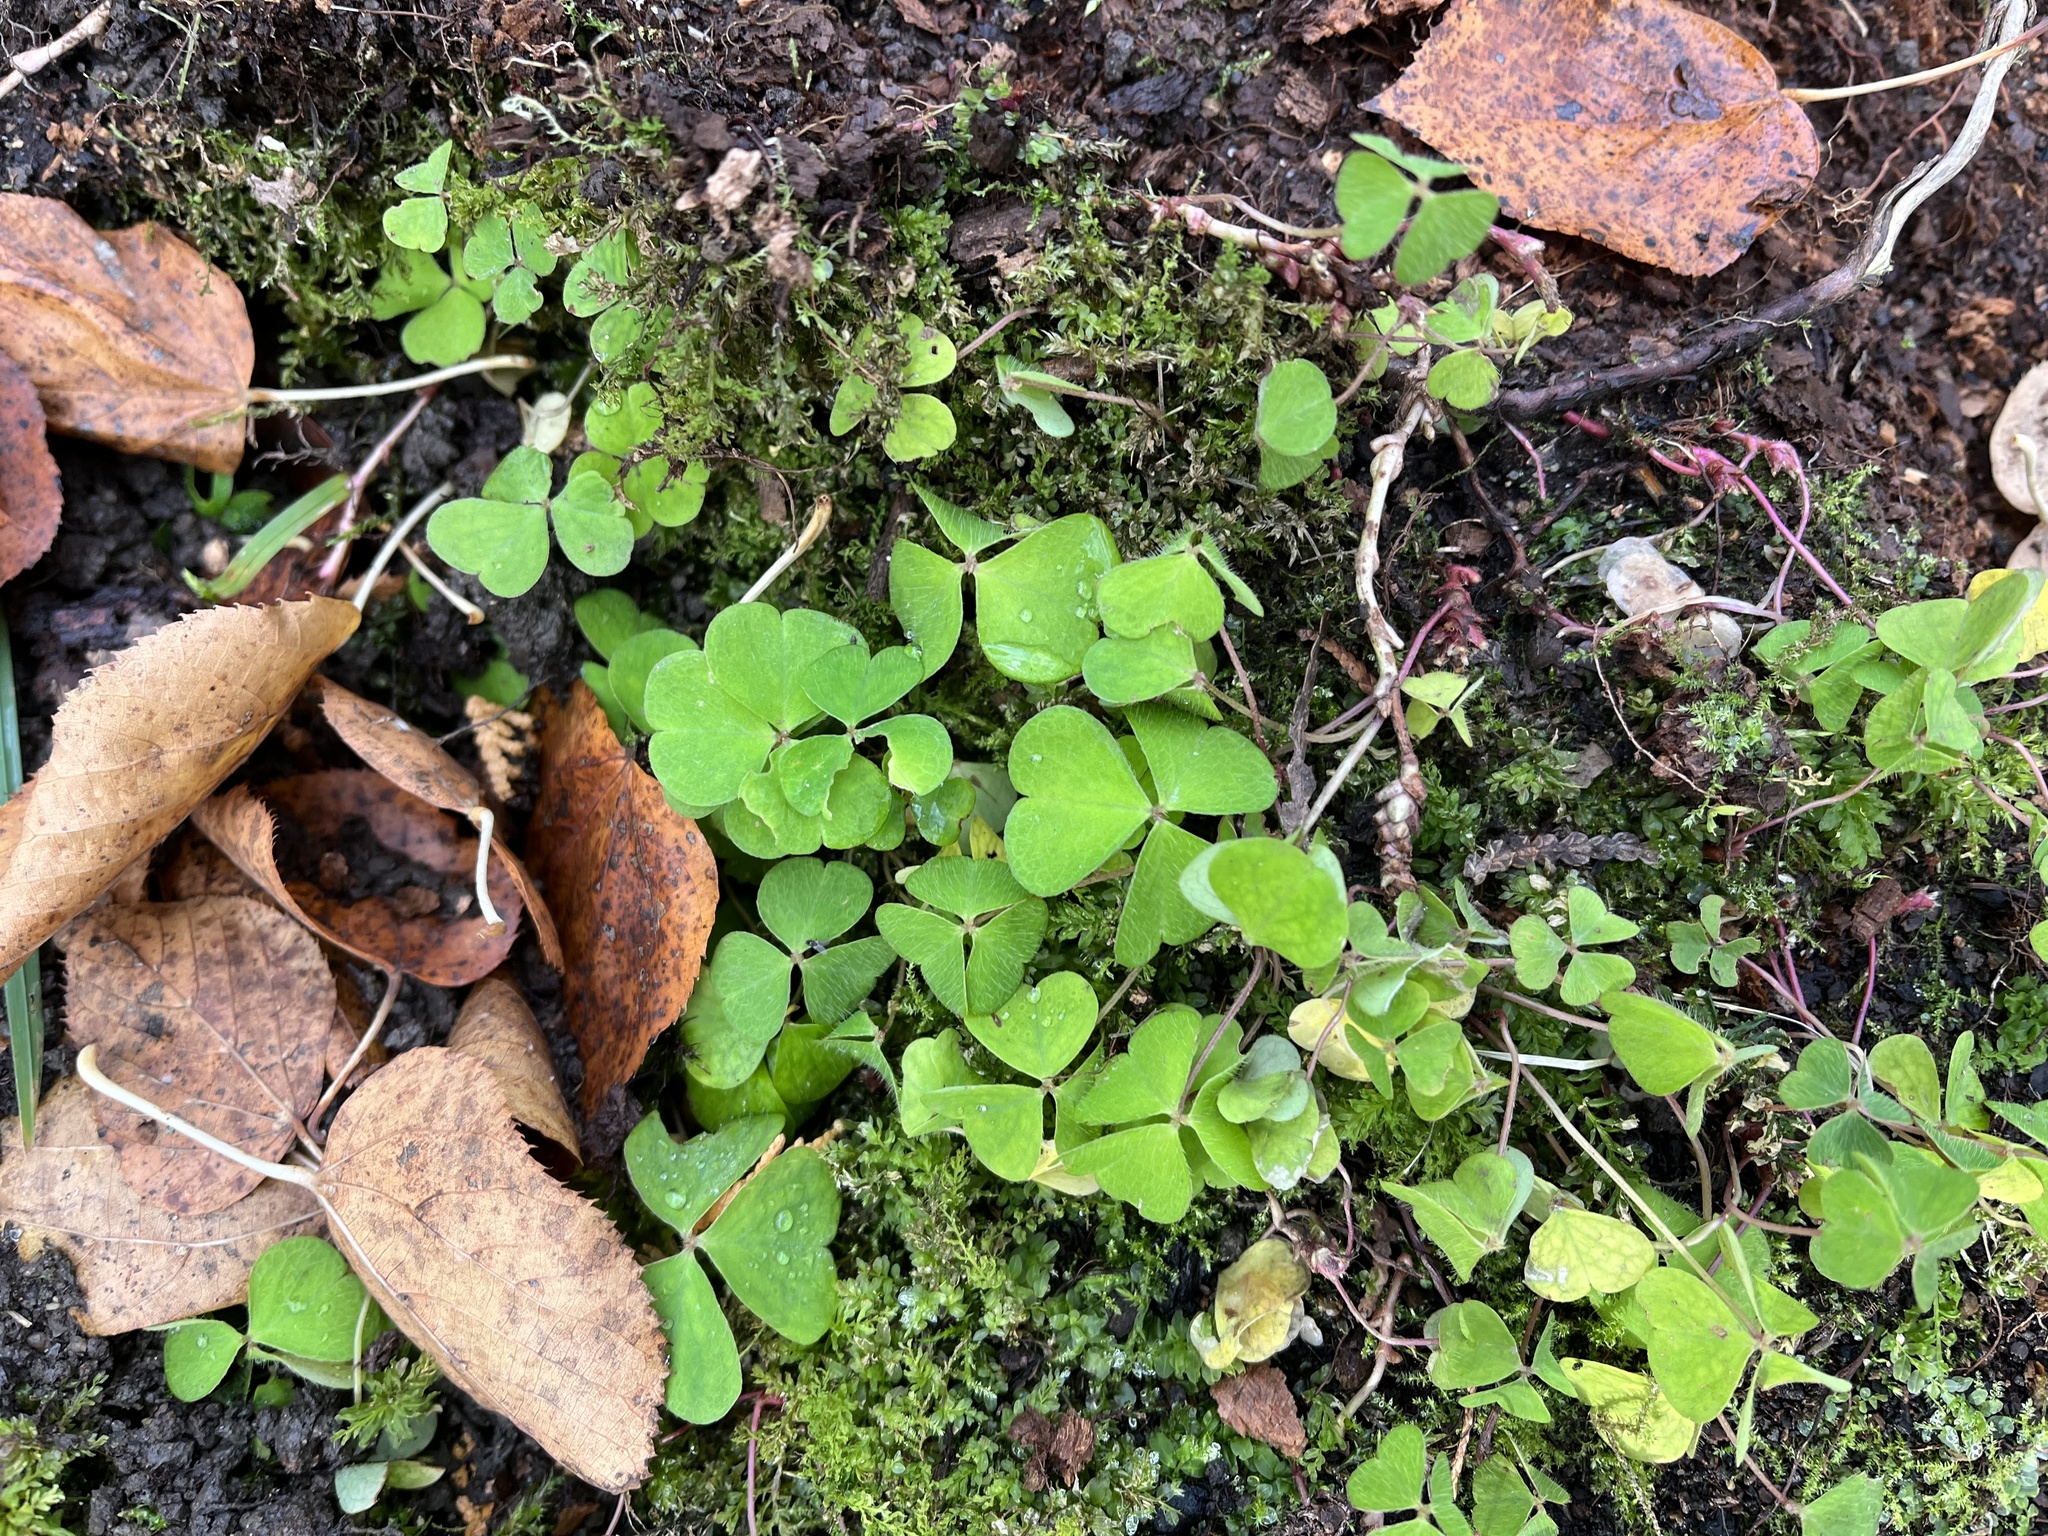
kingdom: Plantae
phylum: Tracheophyta
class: Magnoliopsida
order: Oxalidales
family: Oxalidaceae
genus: Oxalis
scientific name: Oxalis acetosella
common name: Wood-sorrel
